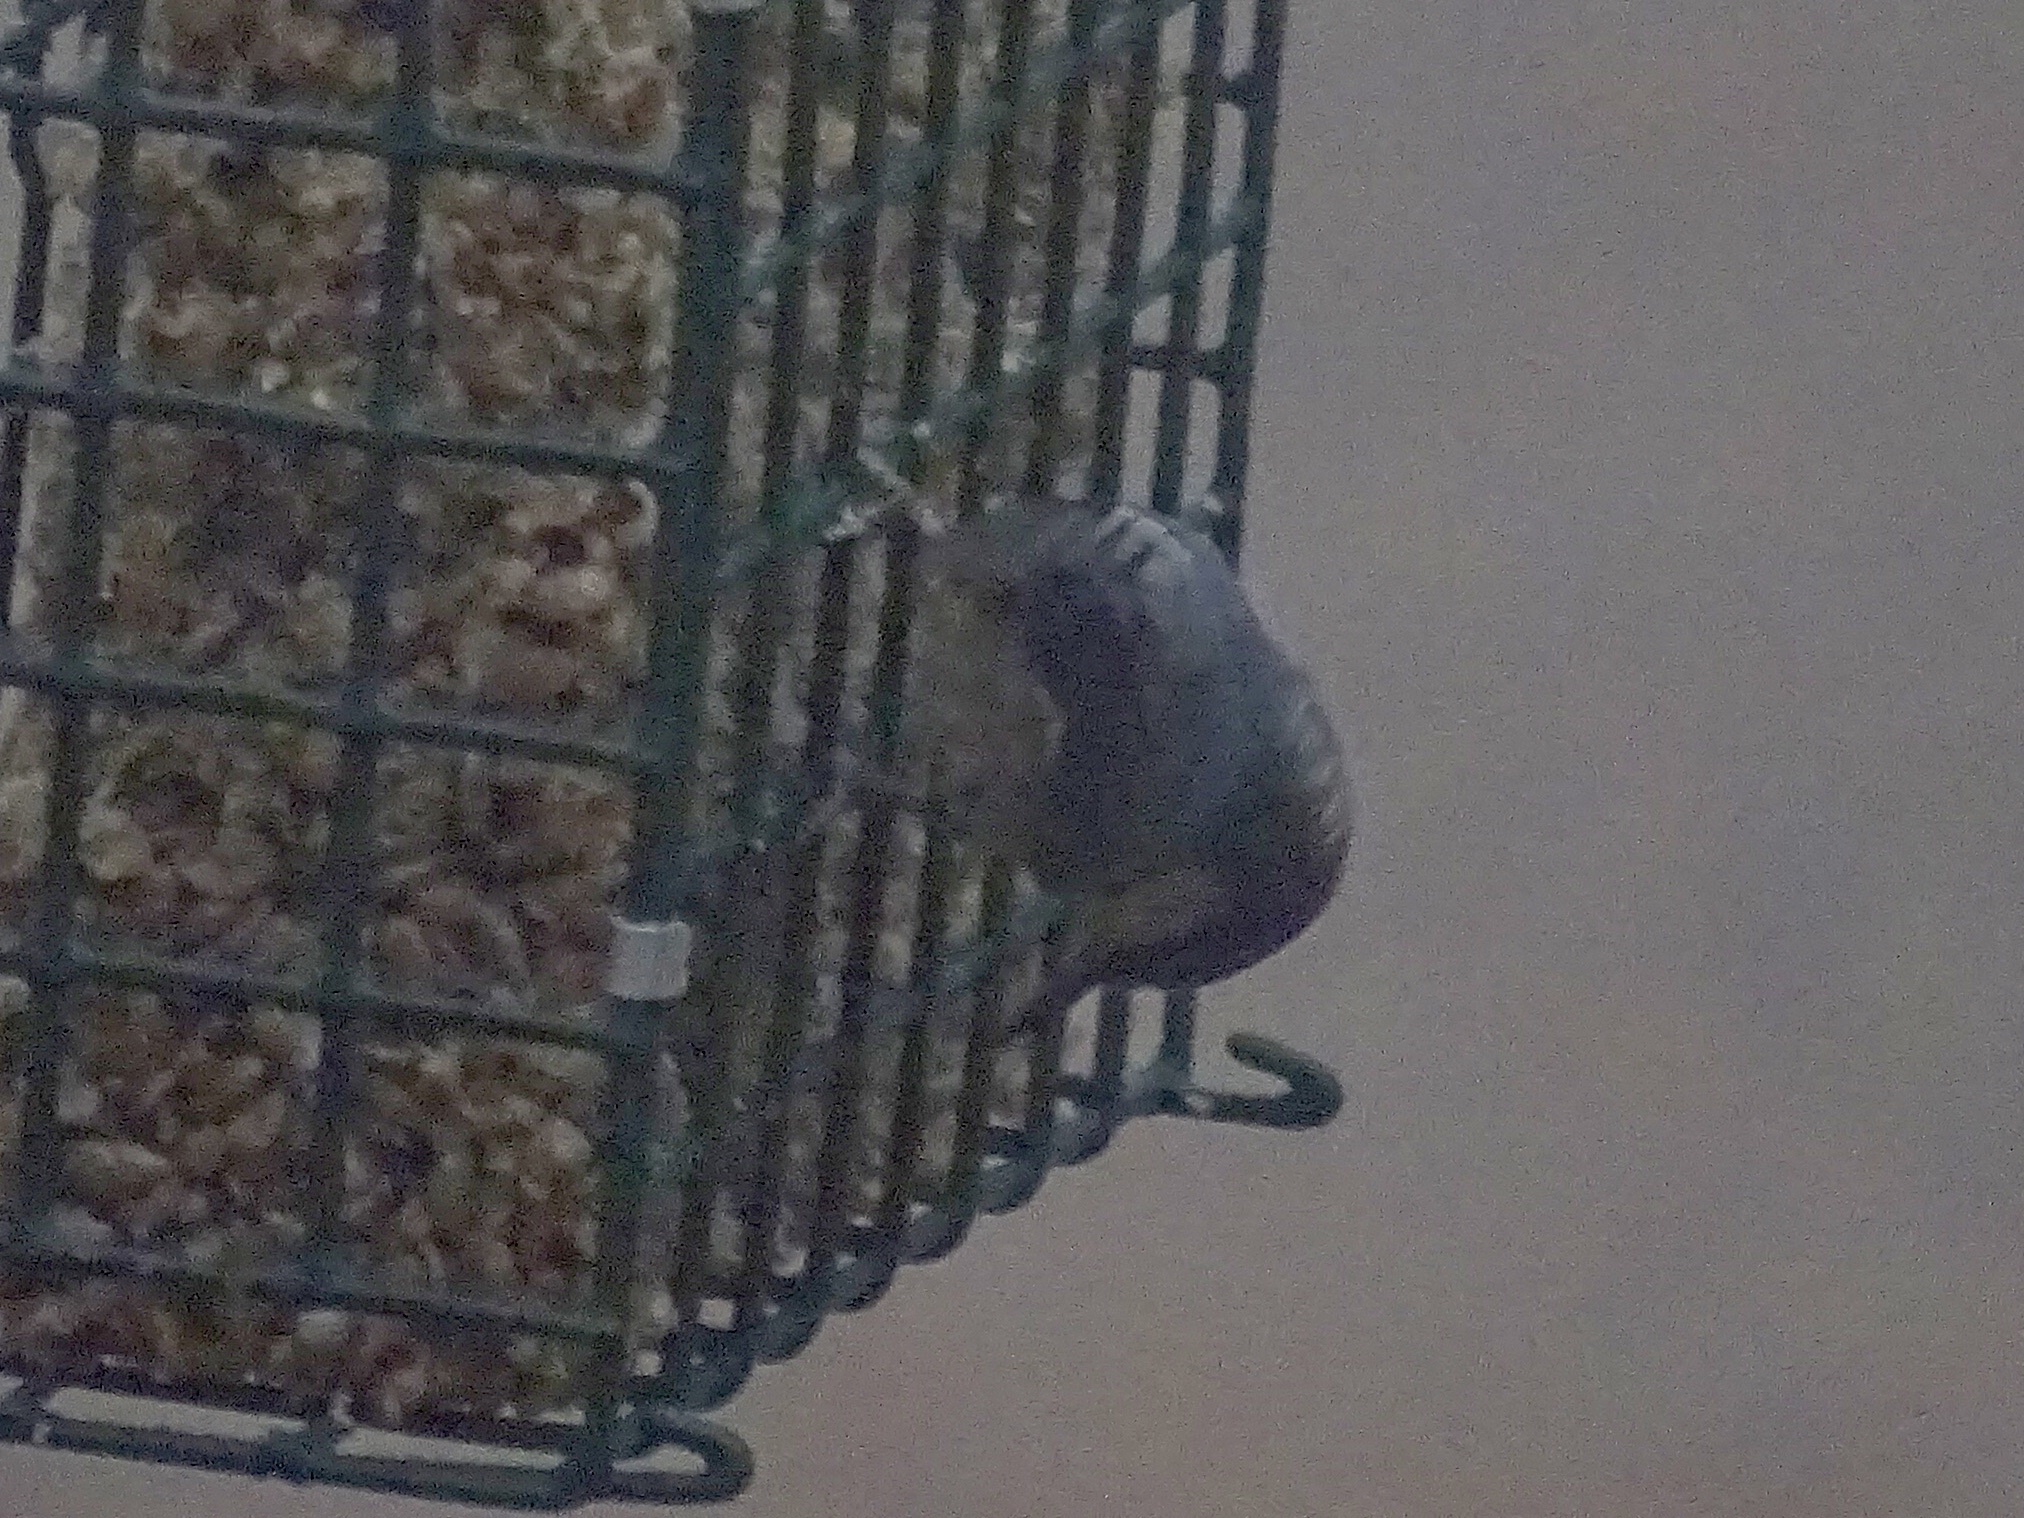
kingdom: Animalia
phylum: Chordata
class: Aves
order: Passeriformes
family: Sittidae
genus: Sitta
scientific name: Sitta pygmaea
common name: Pygmy nuthatch
